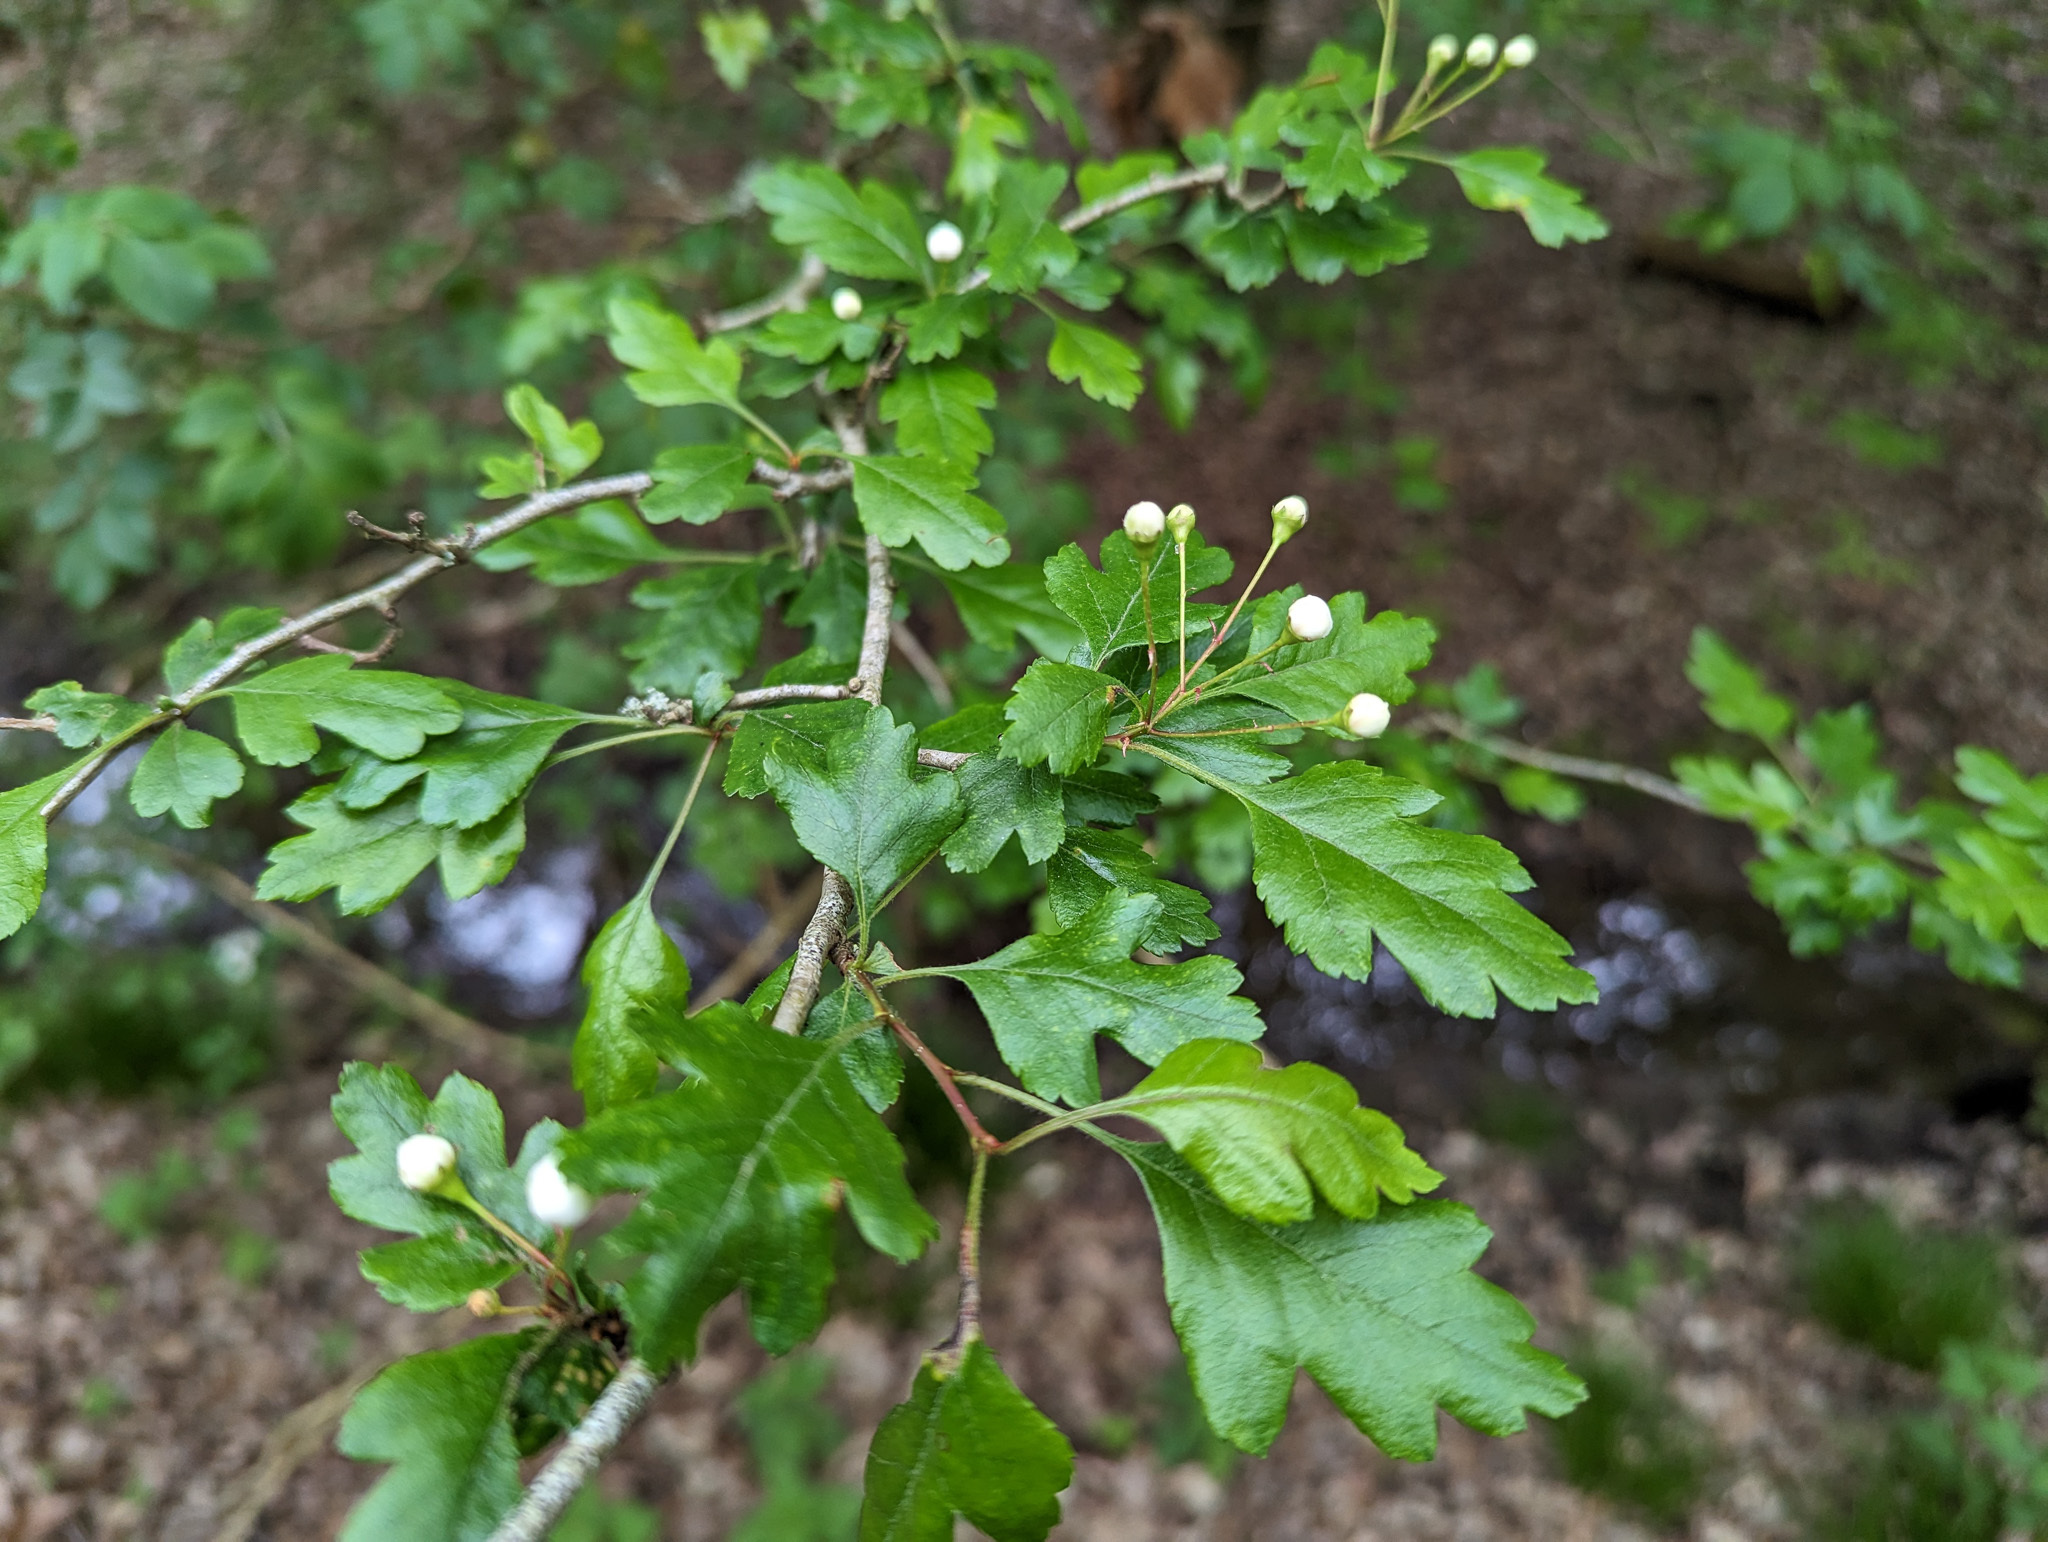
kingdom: Plantae
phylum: Tracheophyta
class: Magnoliopsida
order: Rosales
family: Rosaceae
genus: Crataegus
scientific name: Crataegus monogyna
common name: Hawthorn
